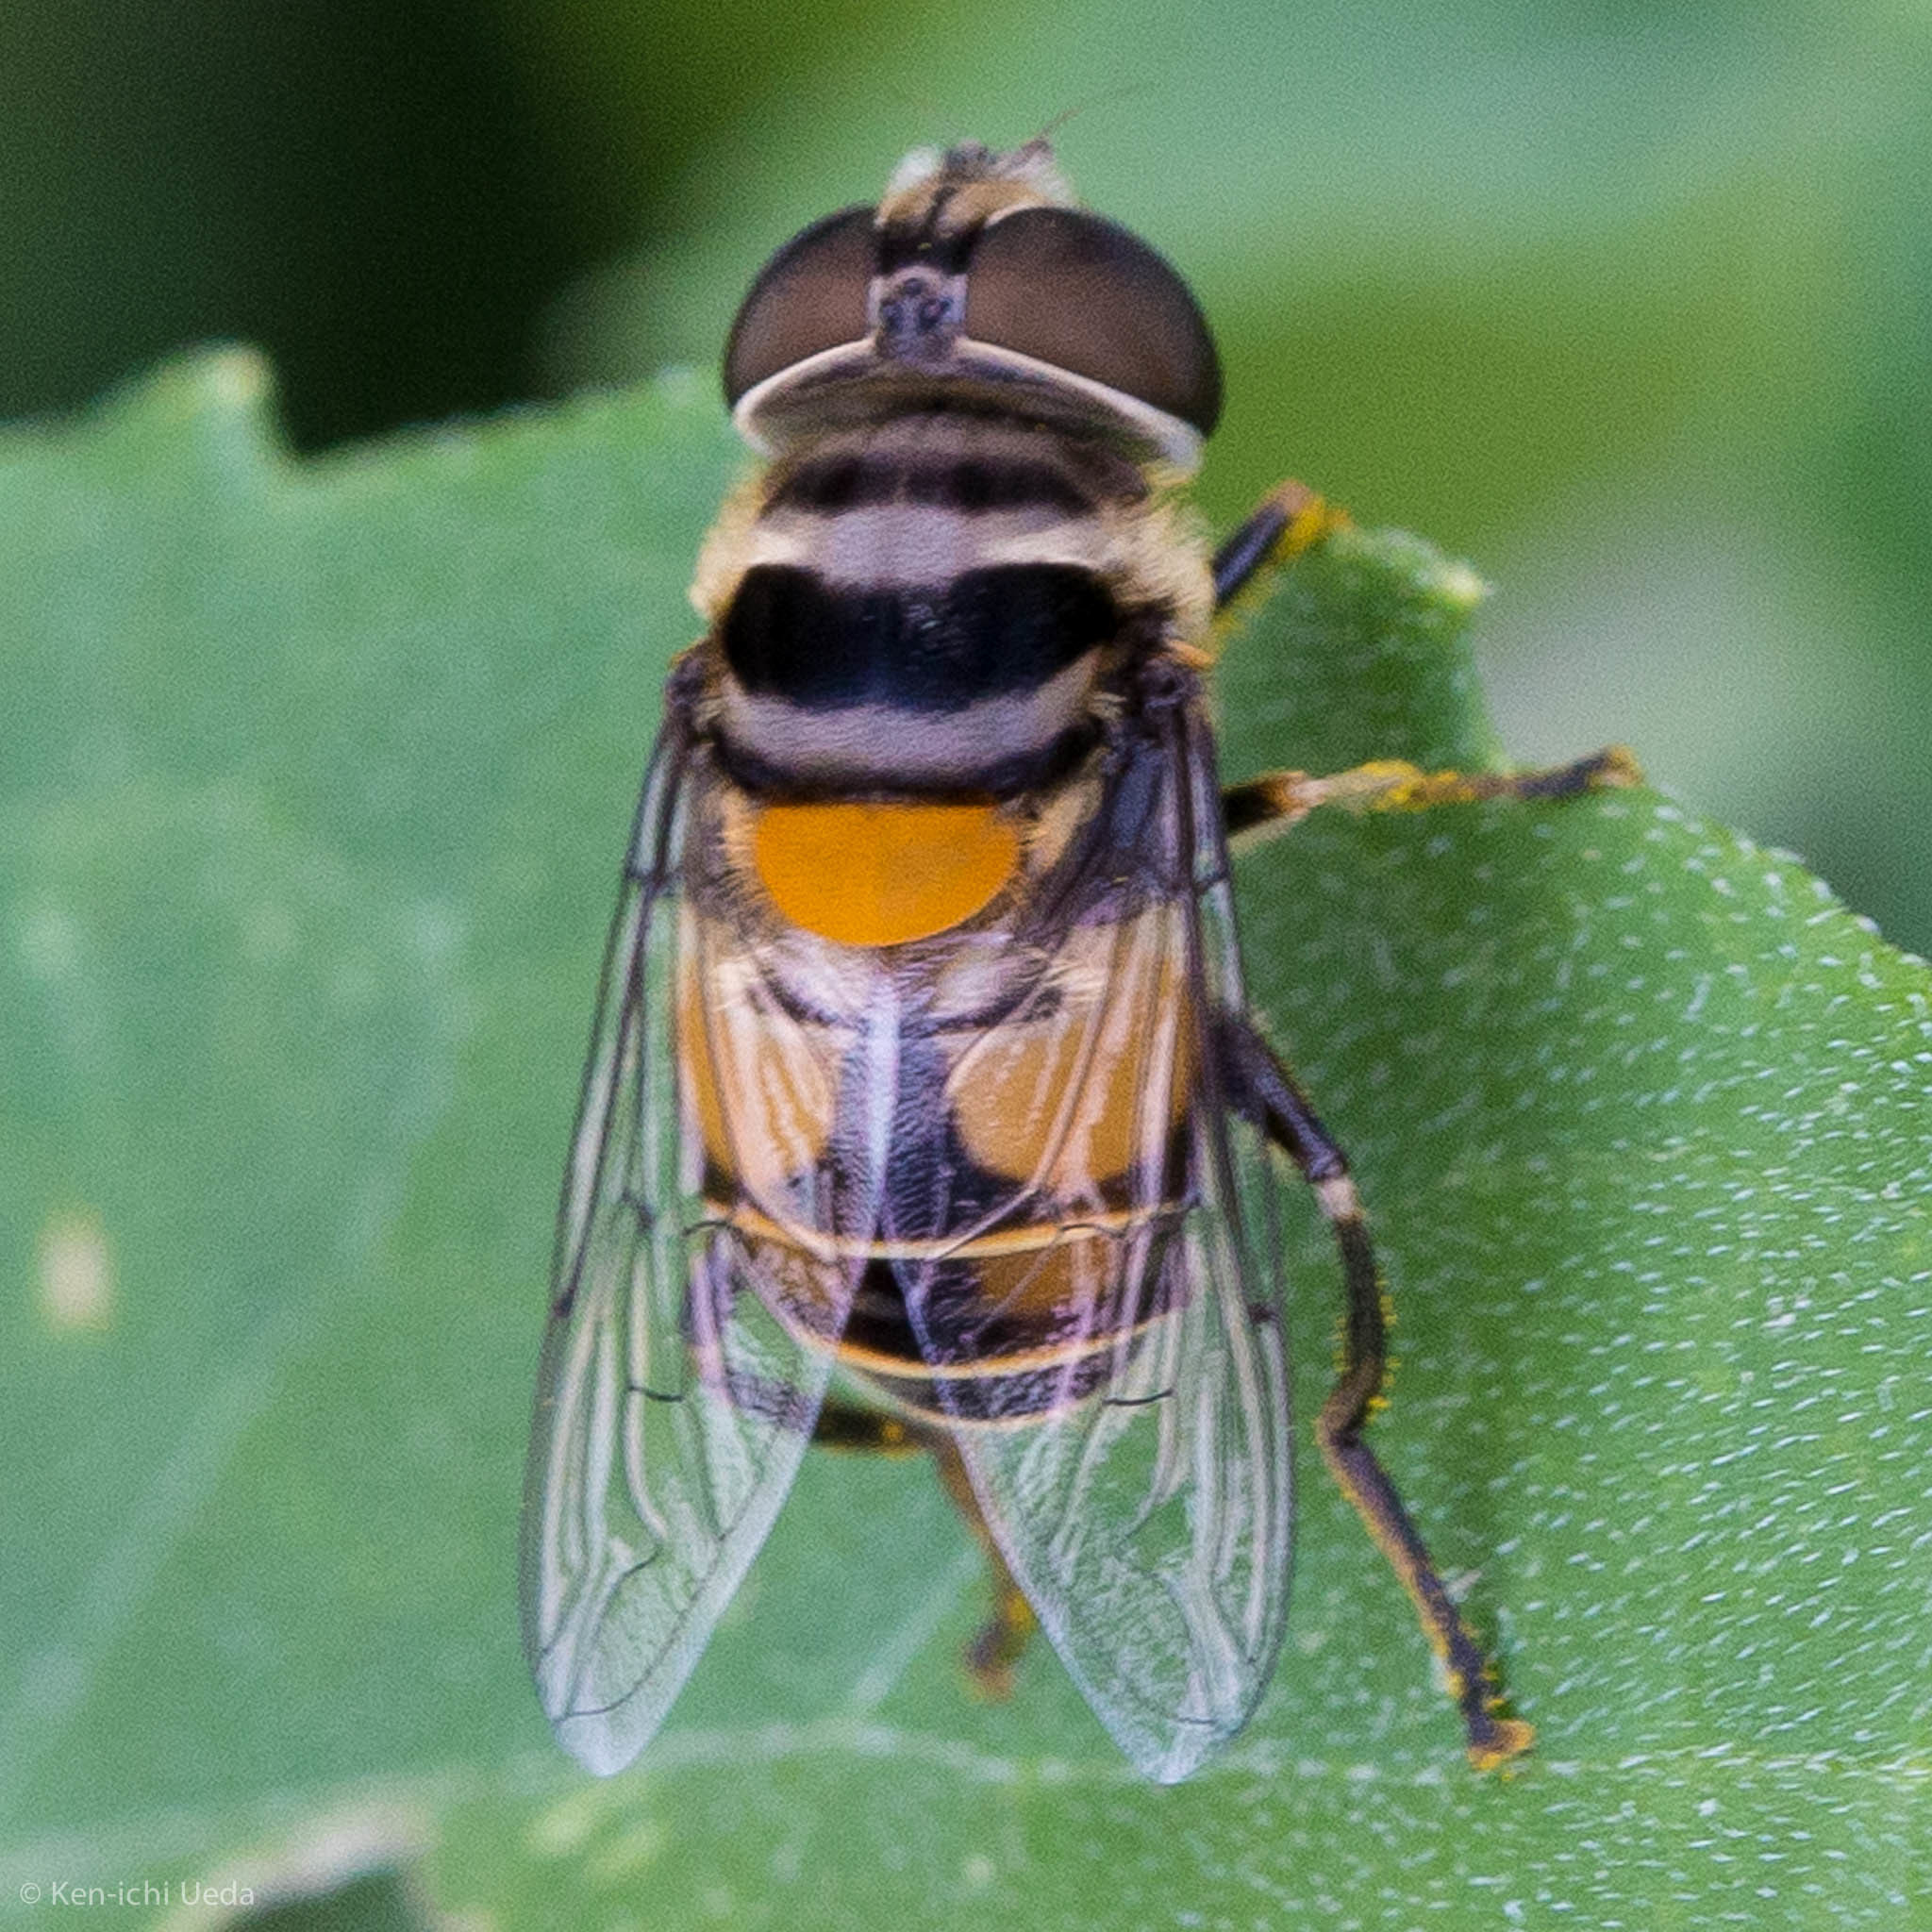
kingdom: Animalia
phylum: Arthropoda
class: Insecta
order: Diptera
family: Syrphidae
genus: Palpada
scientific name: Palpada agrorum
